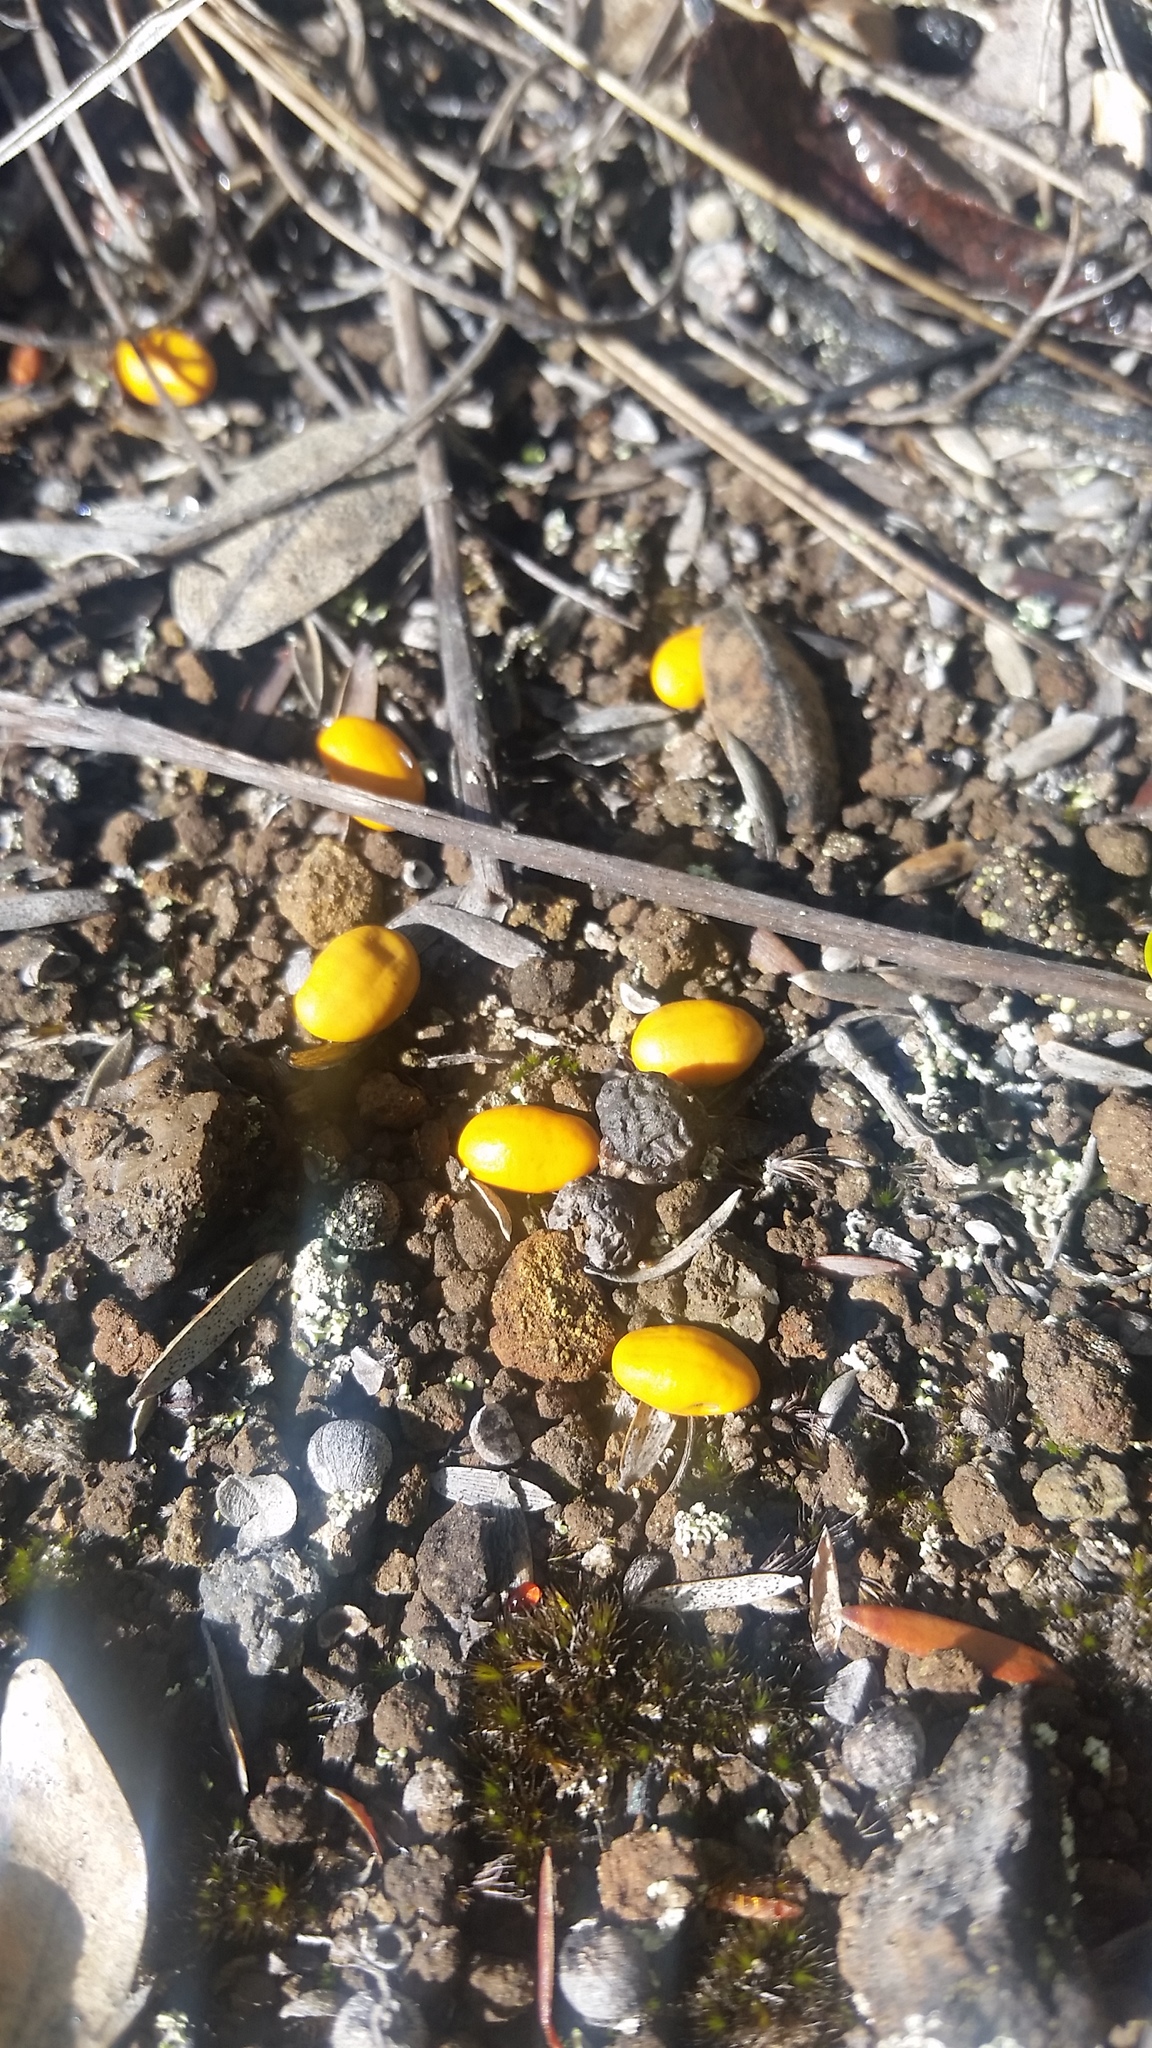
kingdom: Plantae
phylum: Tracheophyta
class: Magnoliopsida
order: Fabales
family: Fabaceae
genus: Sophora
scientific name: Sophora chrysophylla
